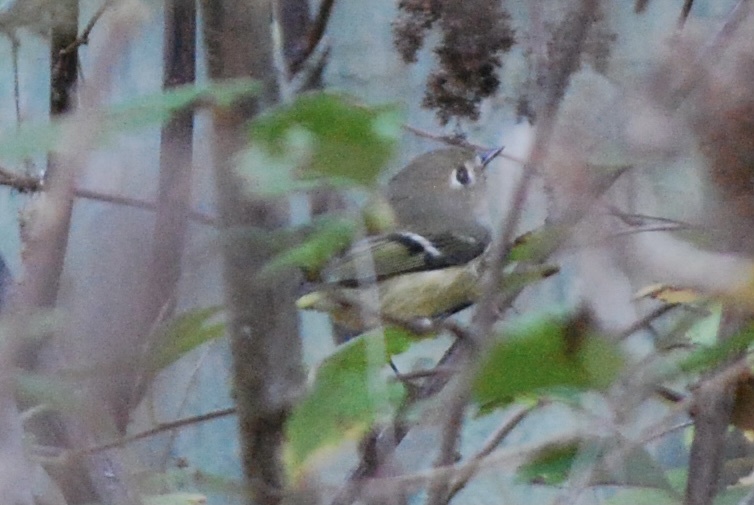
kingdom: Animalia
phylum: Chordata
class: Aves
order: Passeriformes
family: Regulidae
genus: Regulus
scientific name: Regulus calendula
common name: Ruby-crowned kinglet
